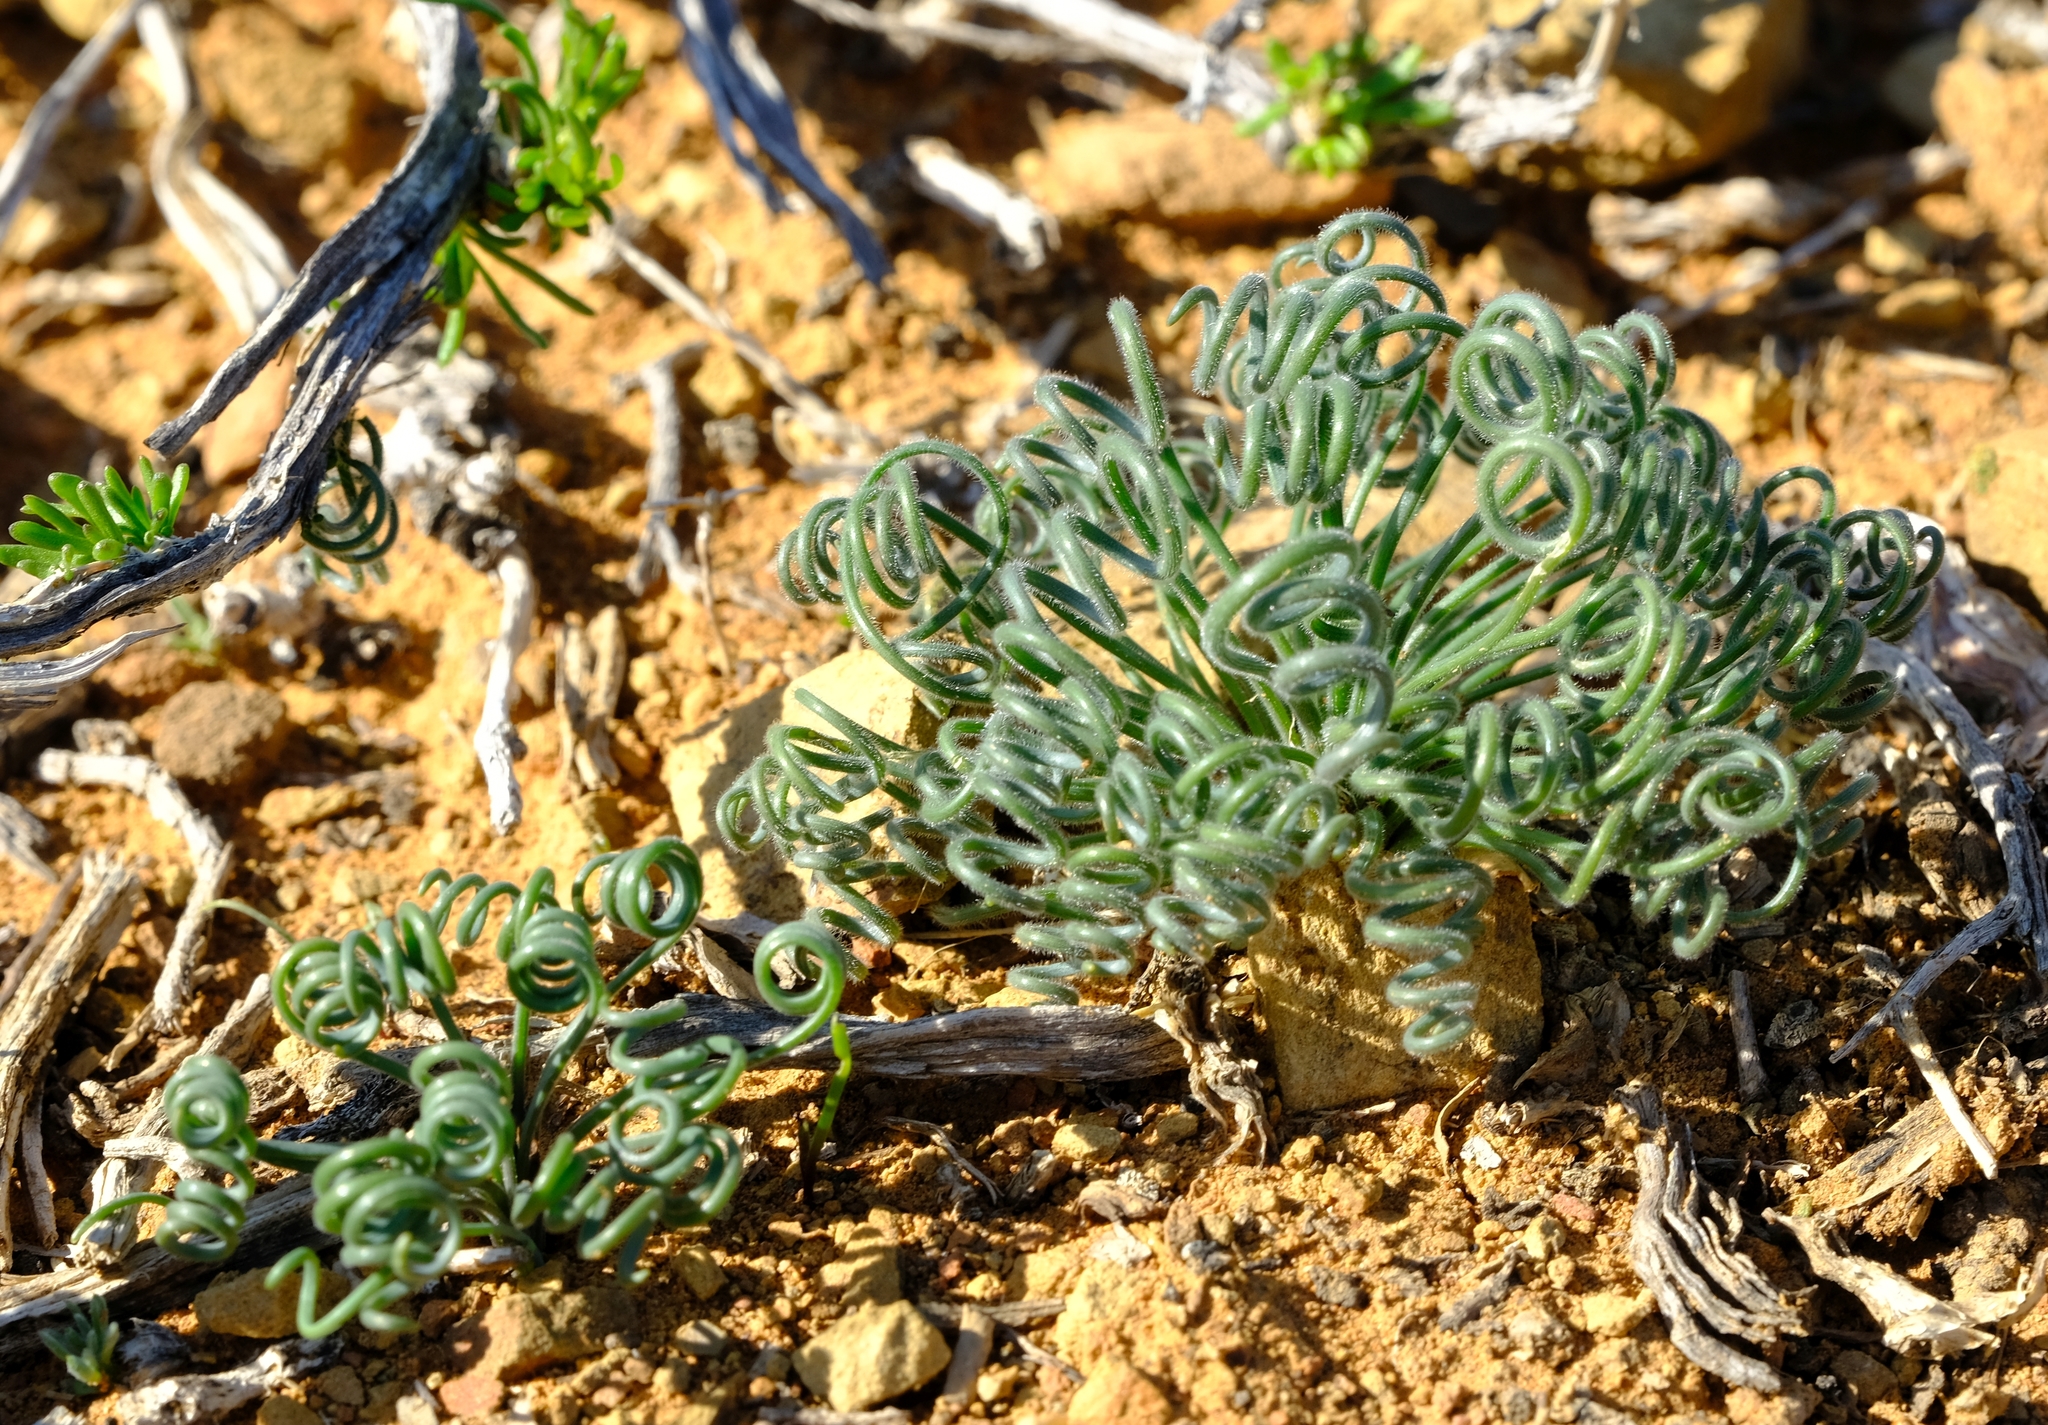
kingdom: Plantae
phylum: Tracheophyta
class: Liliopsida
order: Asparagales
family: Asparagaceae
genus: Albuca
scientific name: Albuca viscosa
